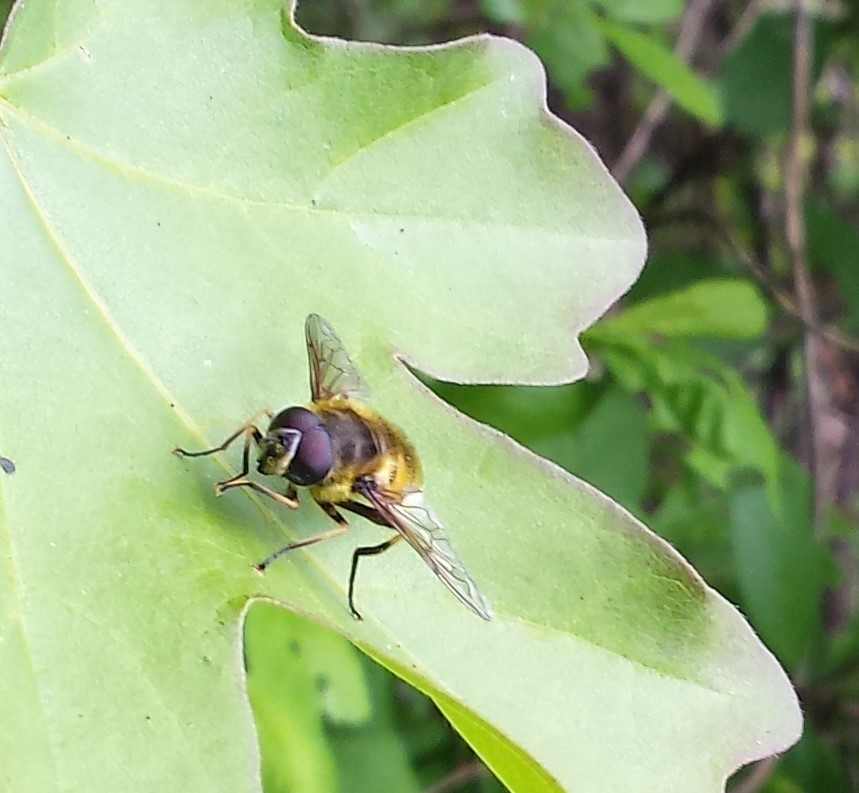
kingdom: Animalia
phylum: Arthropoda
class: Insecta
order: Diptera
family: Syrphidae
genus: Myathropa
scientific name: Myathropa florea
